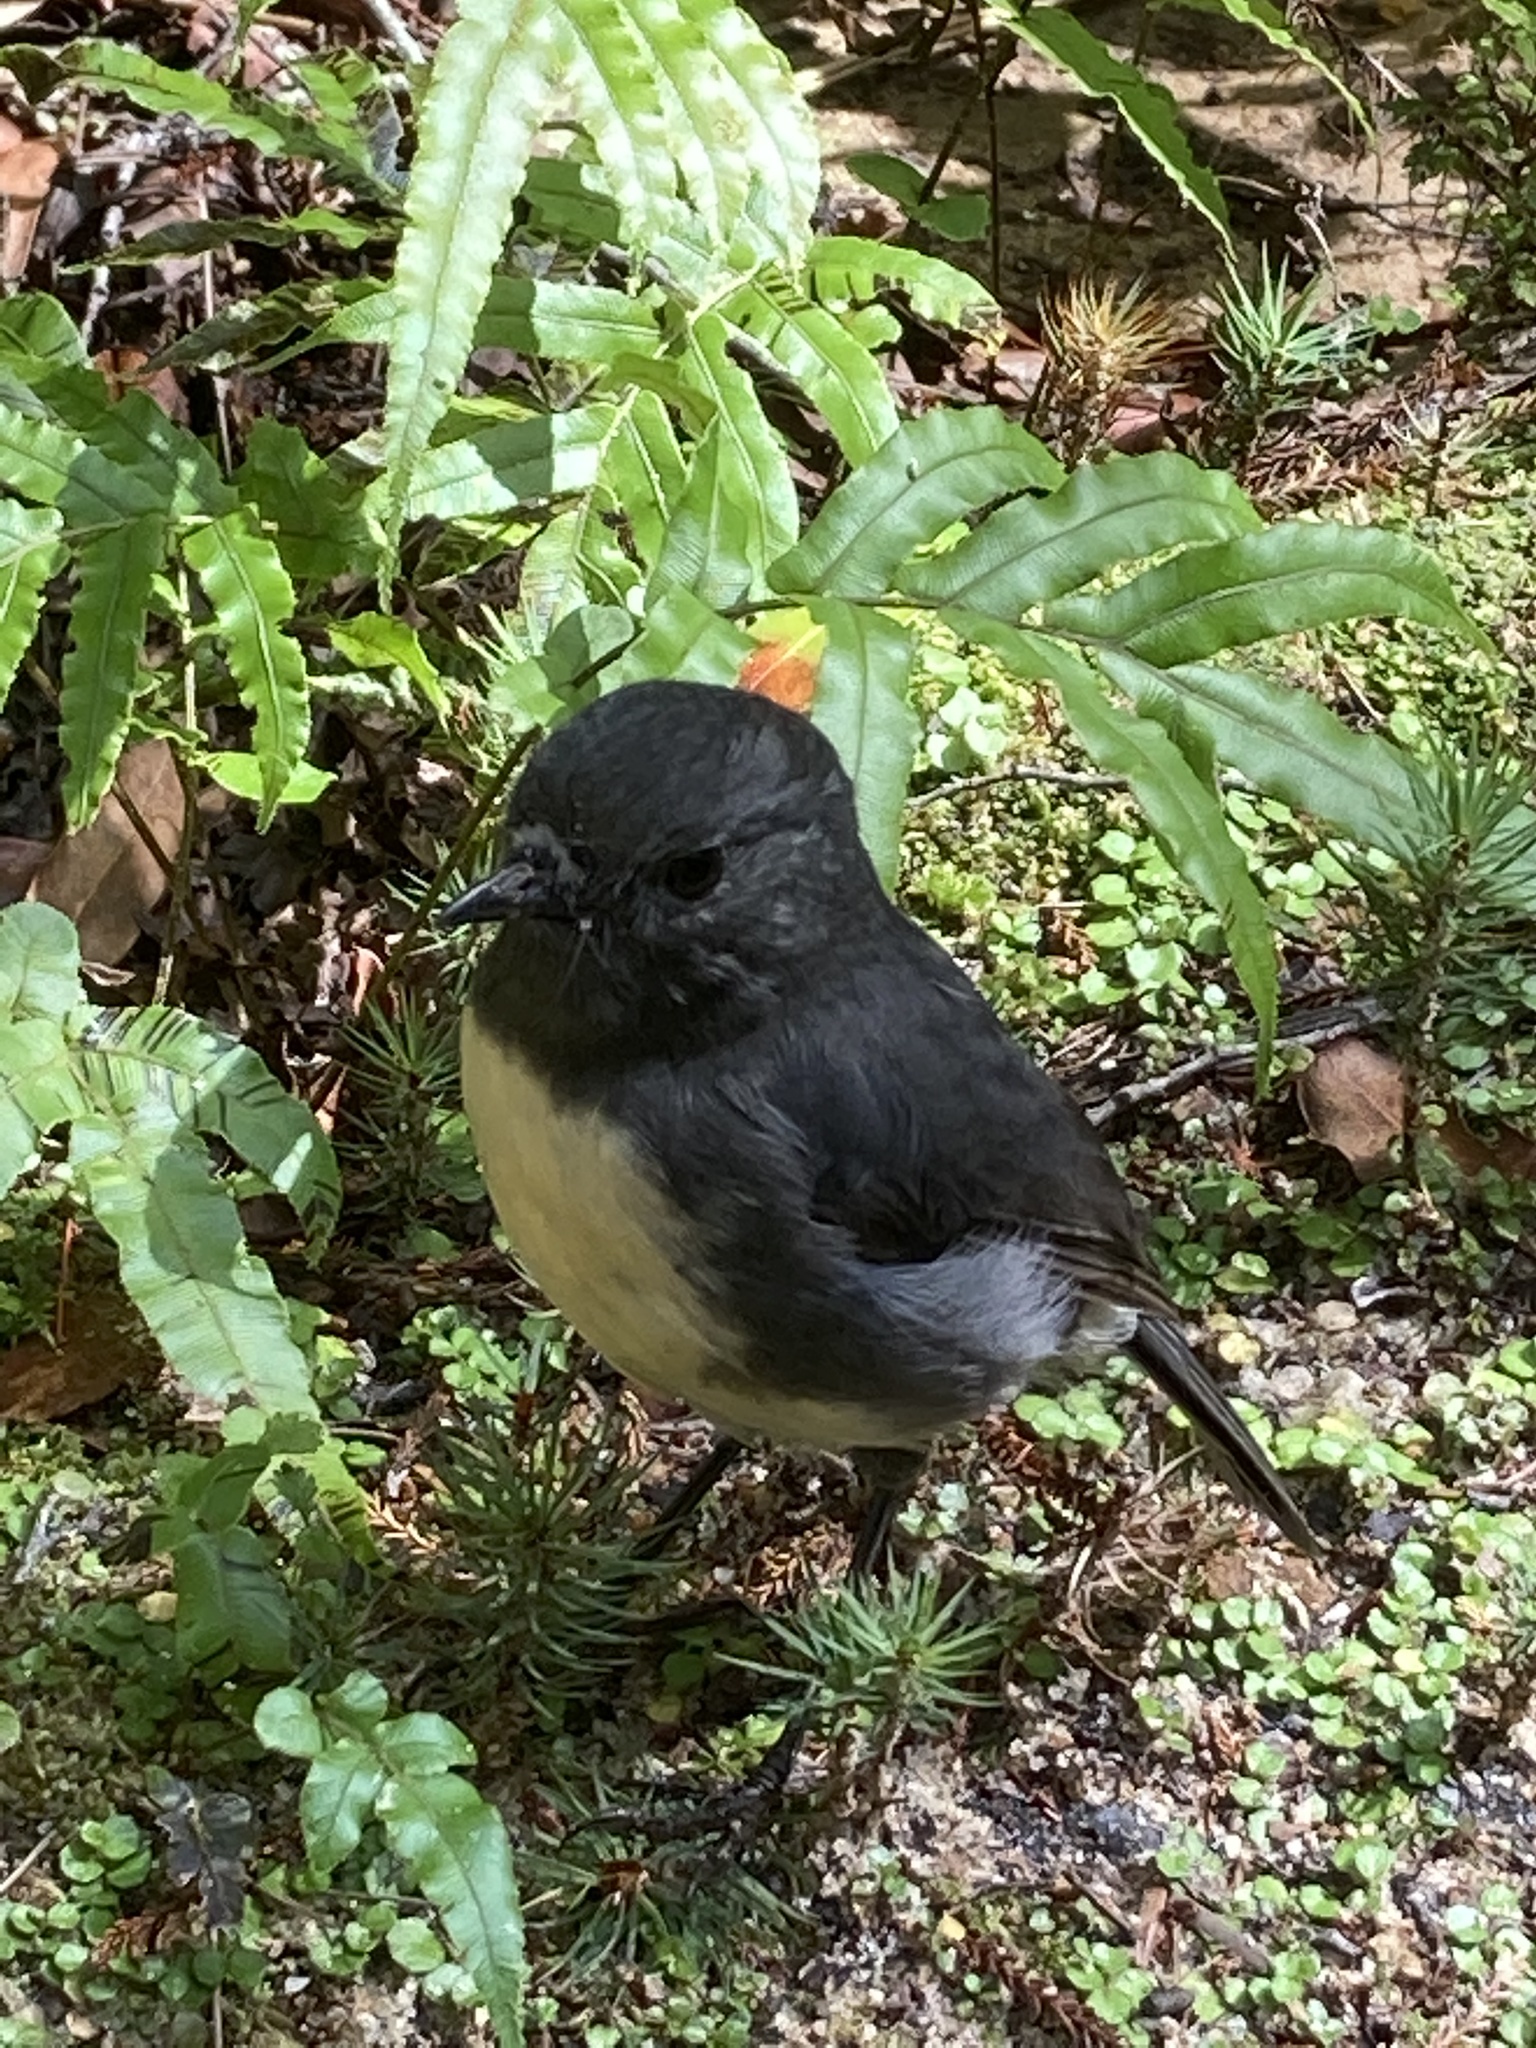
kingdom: Animalia
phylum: Chordata
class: Aves
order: Passeriformes
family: Petroicidae
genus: Petroica
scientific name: Petroica australis
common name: New zealand robin
